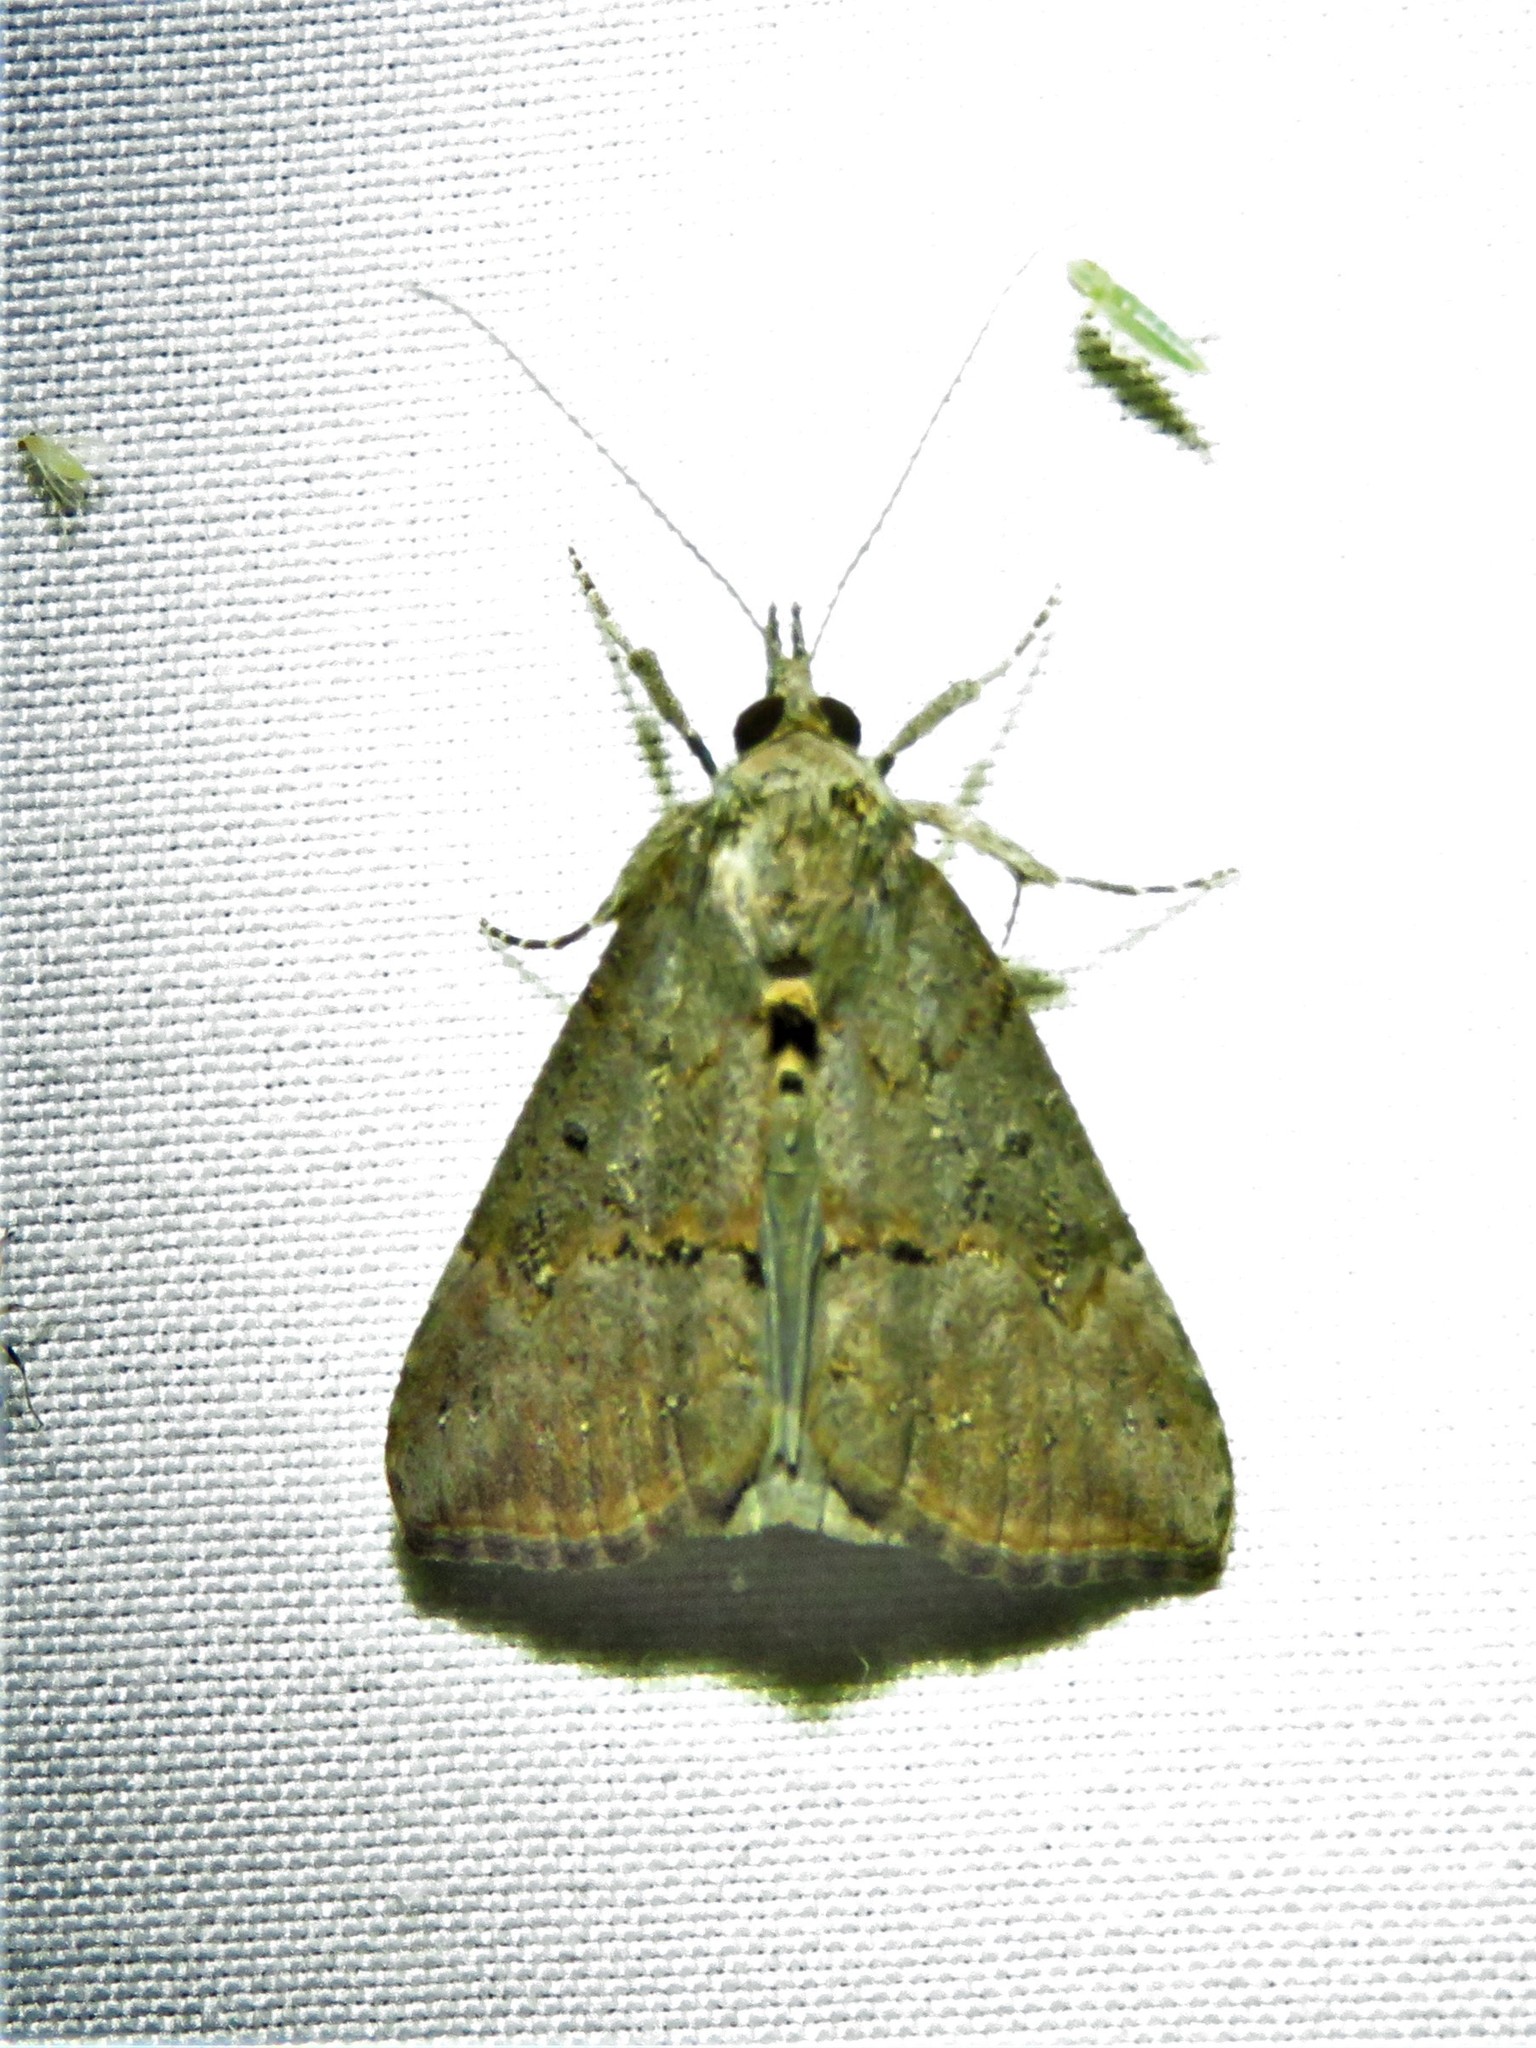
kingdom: Animalia
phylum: Arthropoda
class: Insecta
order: Lepidoptera
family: Erebidae
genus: Hypena
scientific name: Hypena scabra
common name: Green cloverworm
